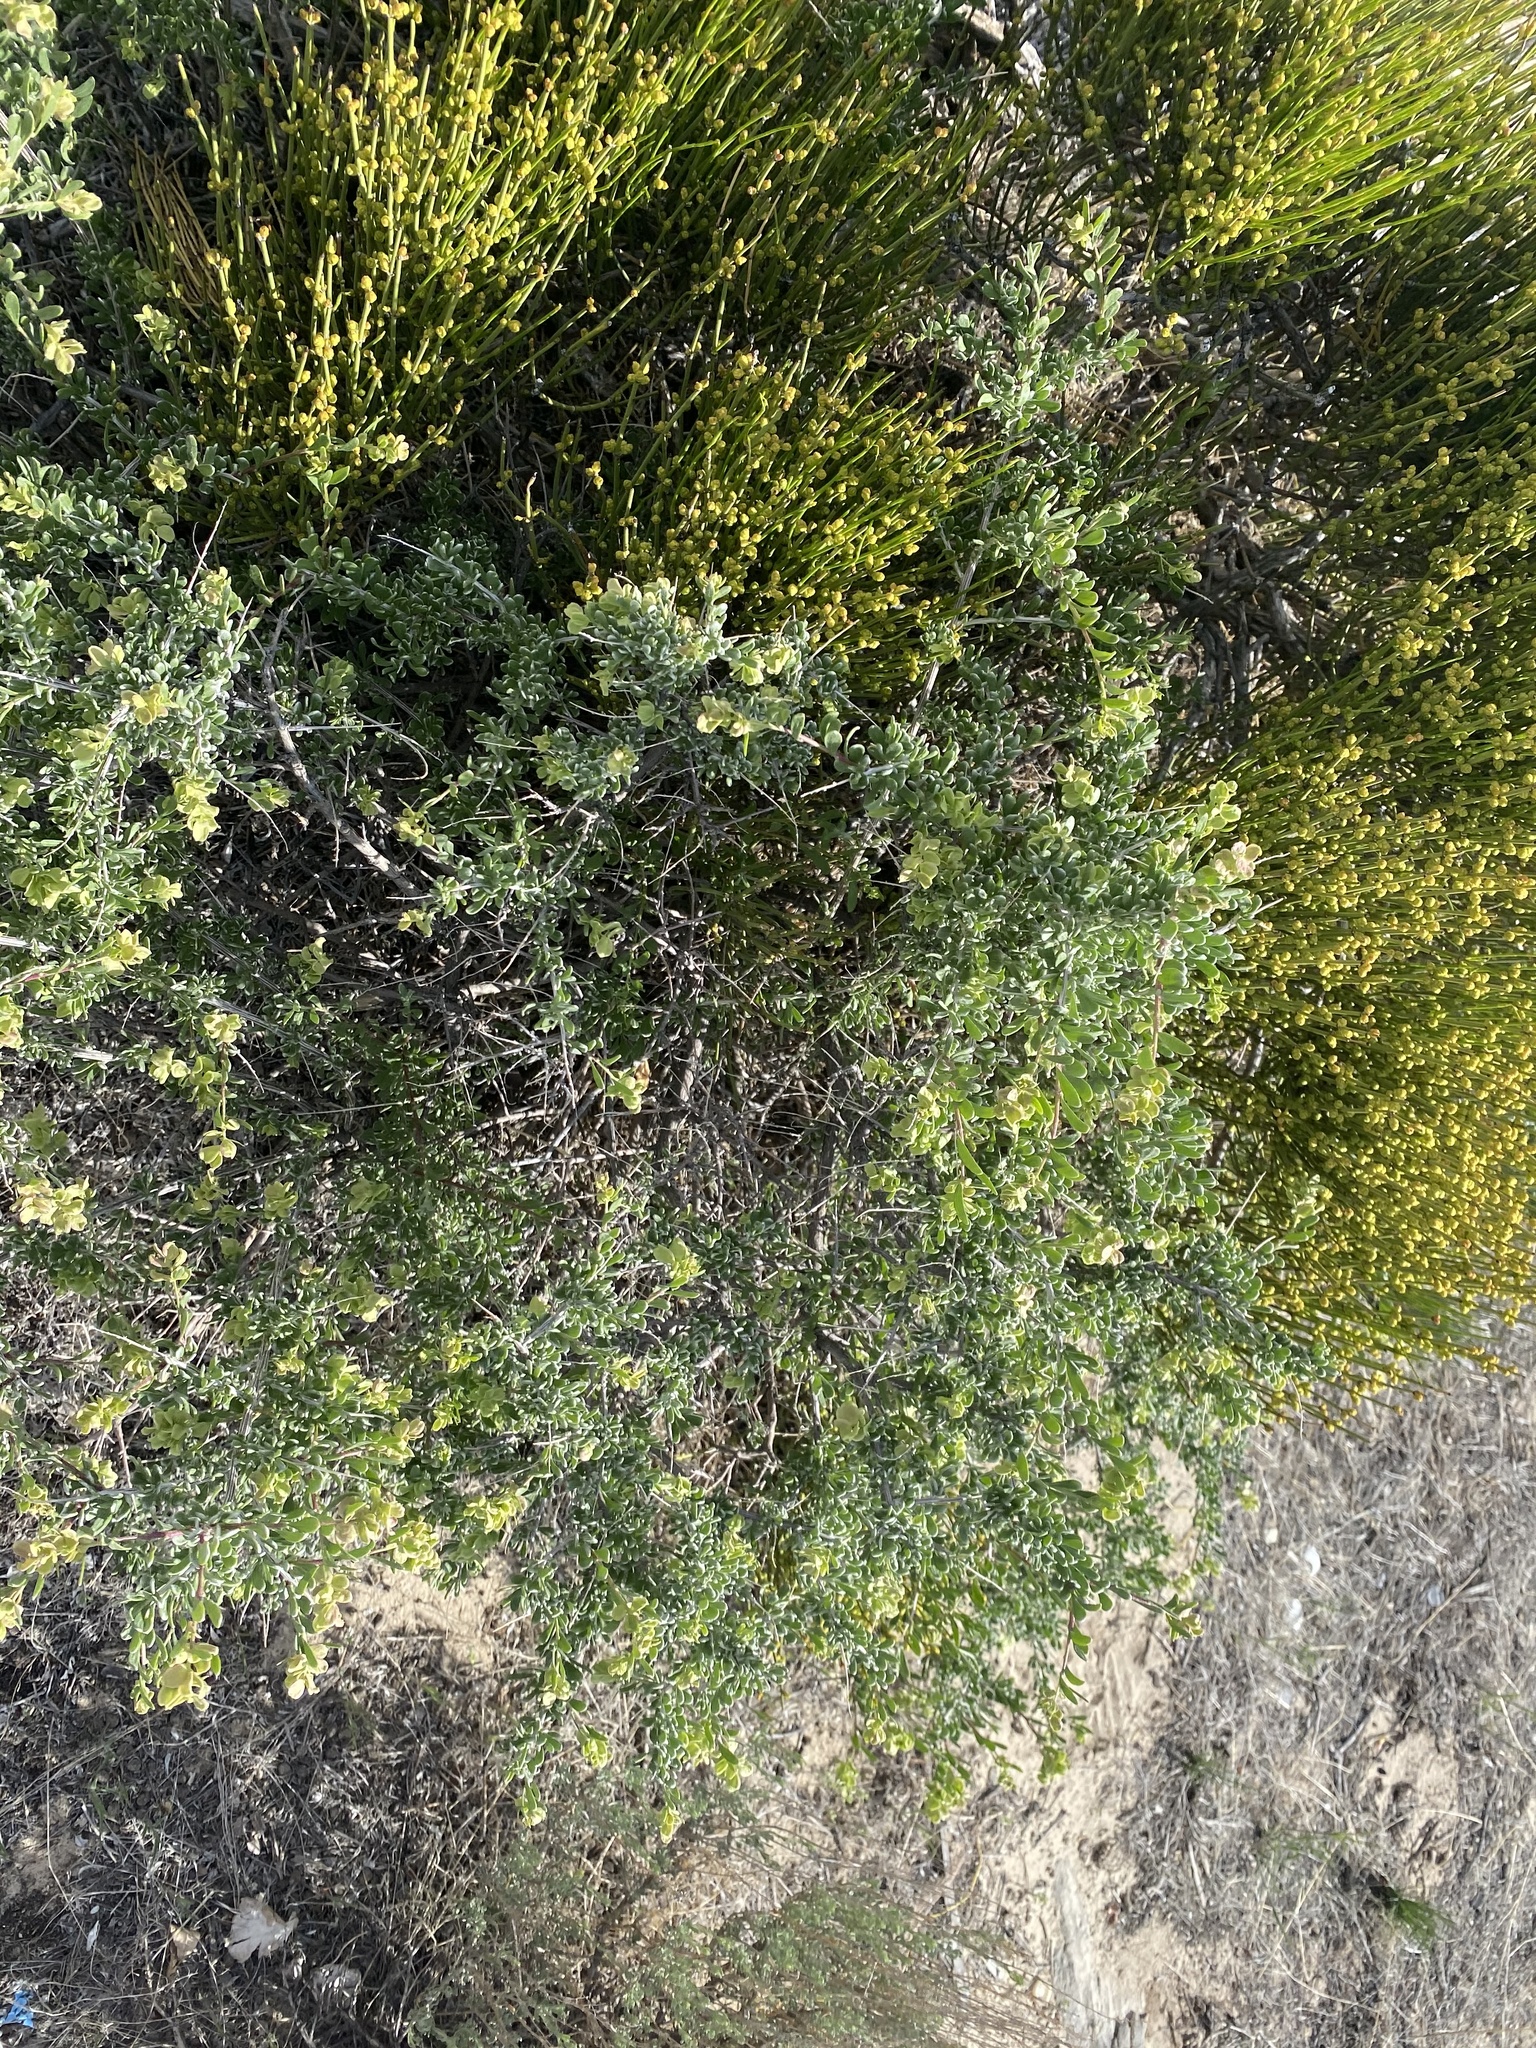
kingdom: Plantae
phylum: Tracheophyta
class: Magnoliopsida
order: Caryophyllales
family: Amaranthaceae
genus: Grayia
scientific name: Grayia spinosa
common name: Spiny hopsage
